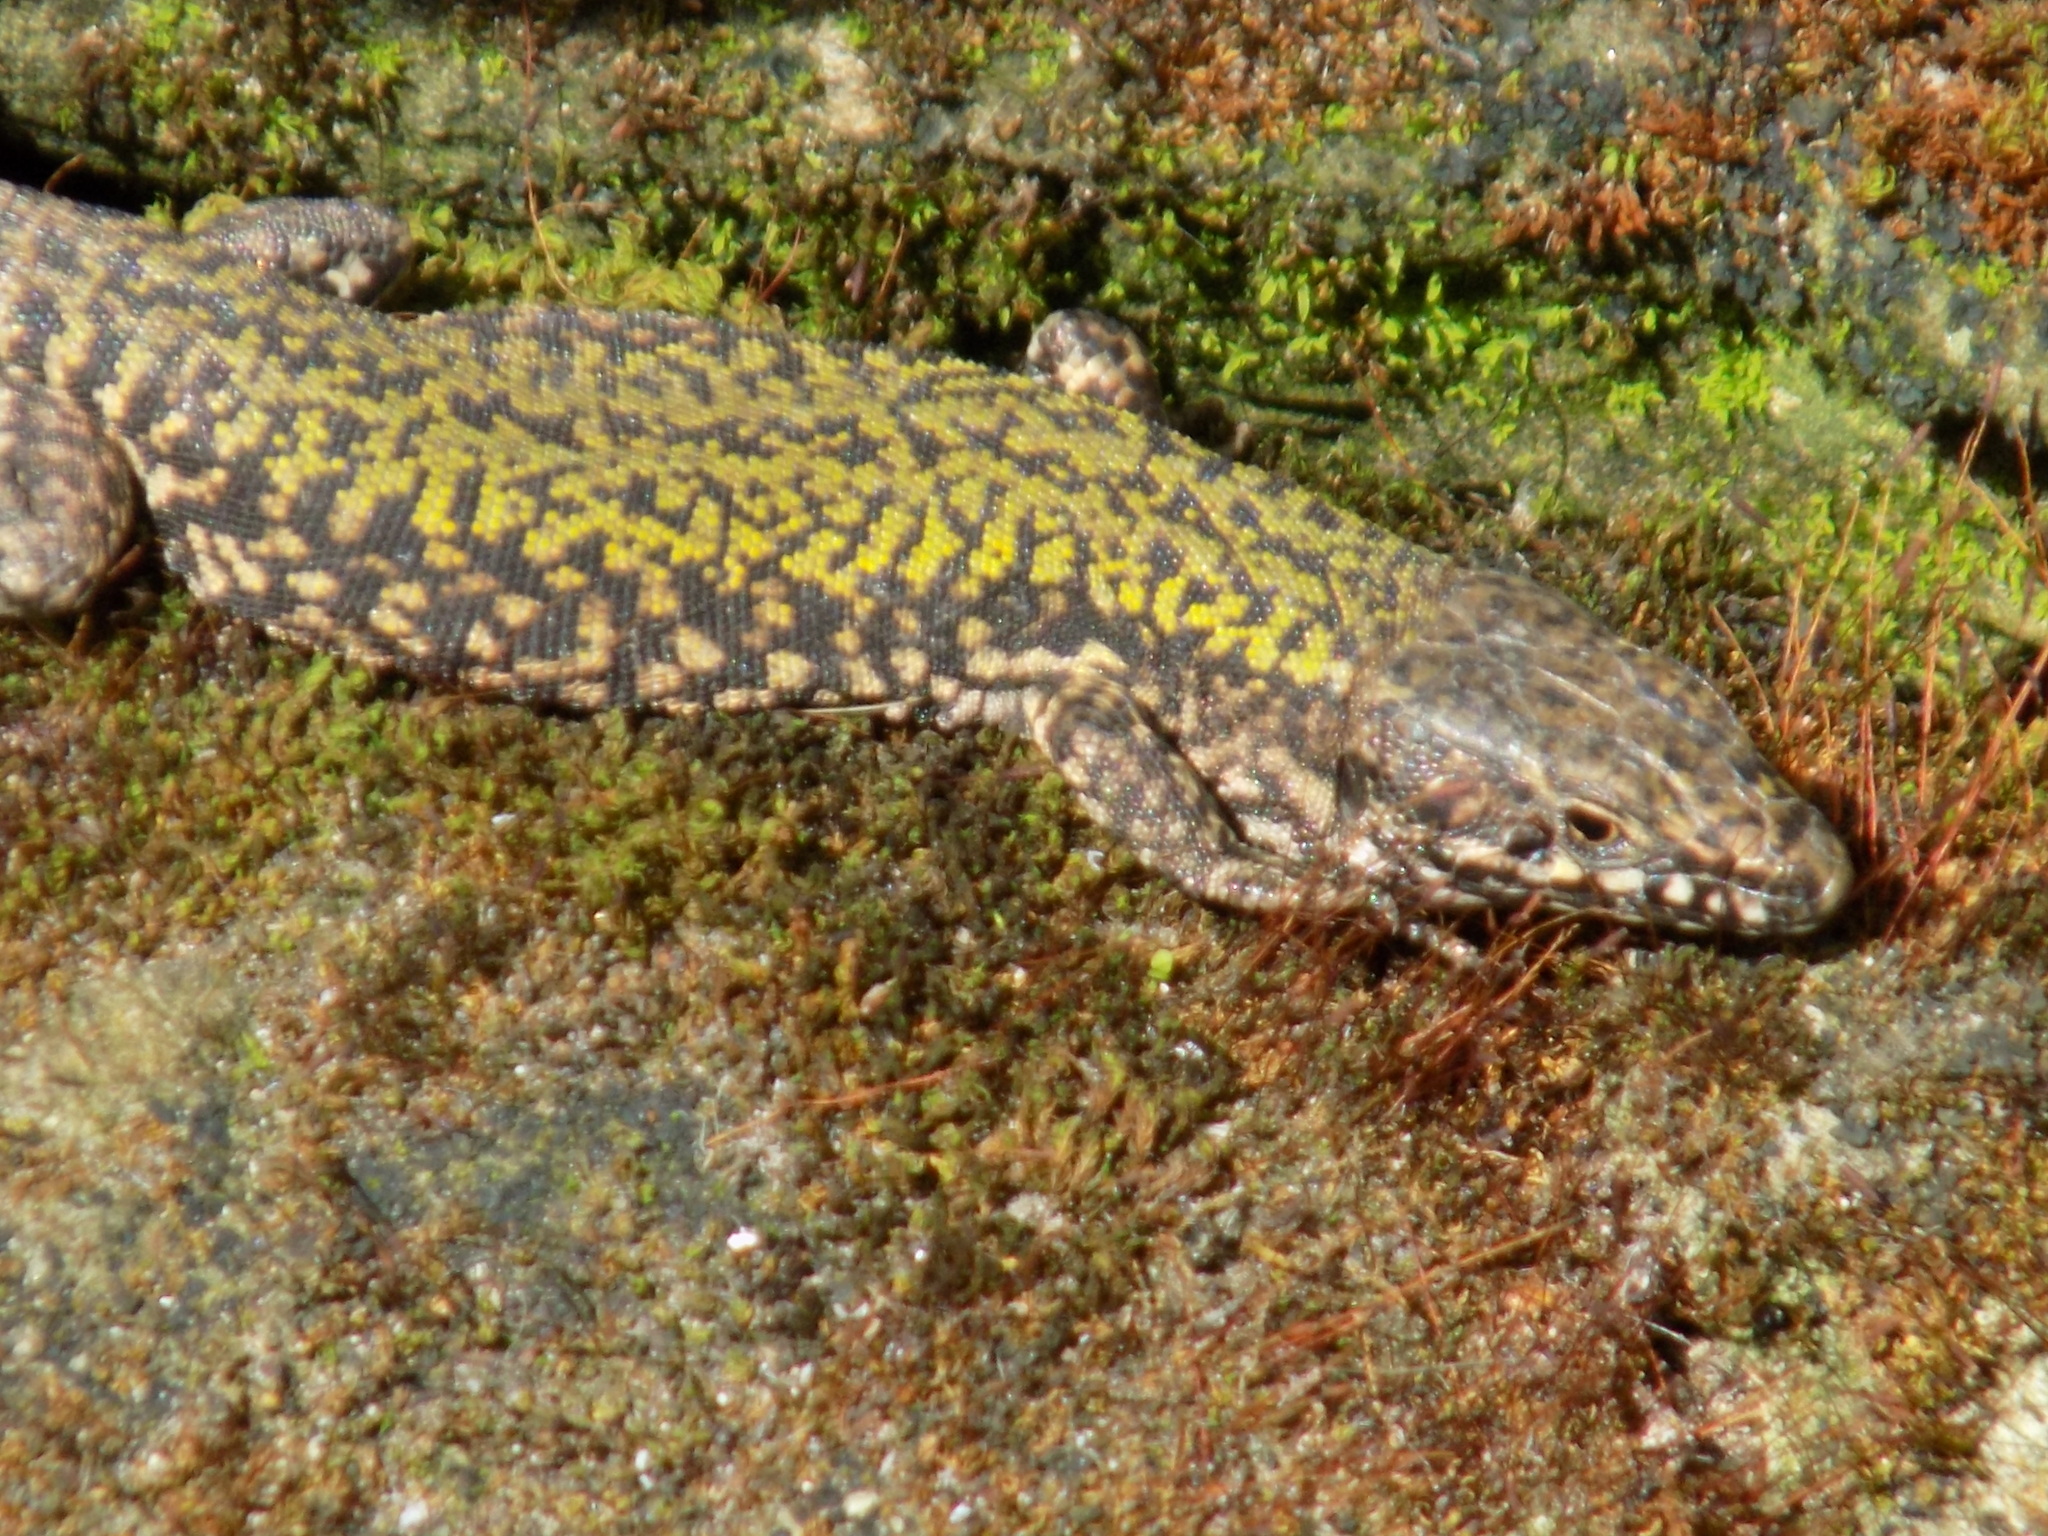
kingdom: Animalia
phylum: Chordata
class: Squamata
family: Lacertidae
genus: Podarcis
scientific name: Podarcis muralis
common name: Common wall lizard
